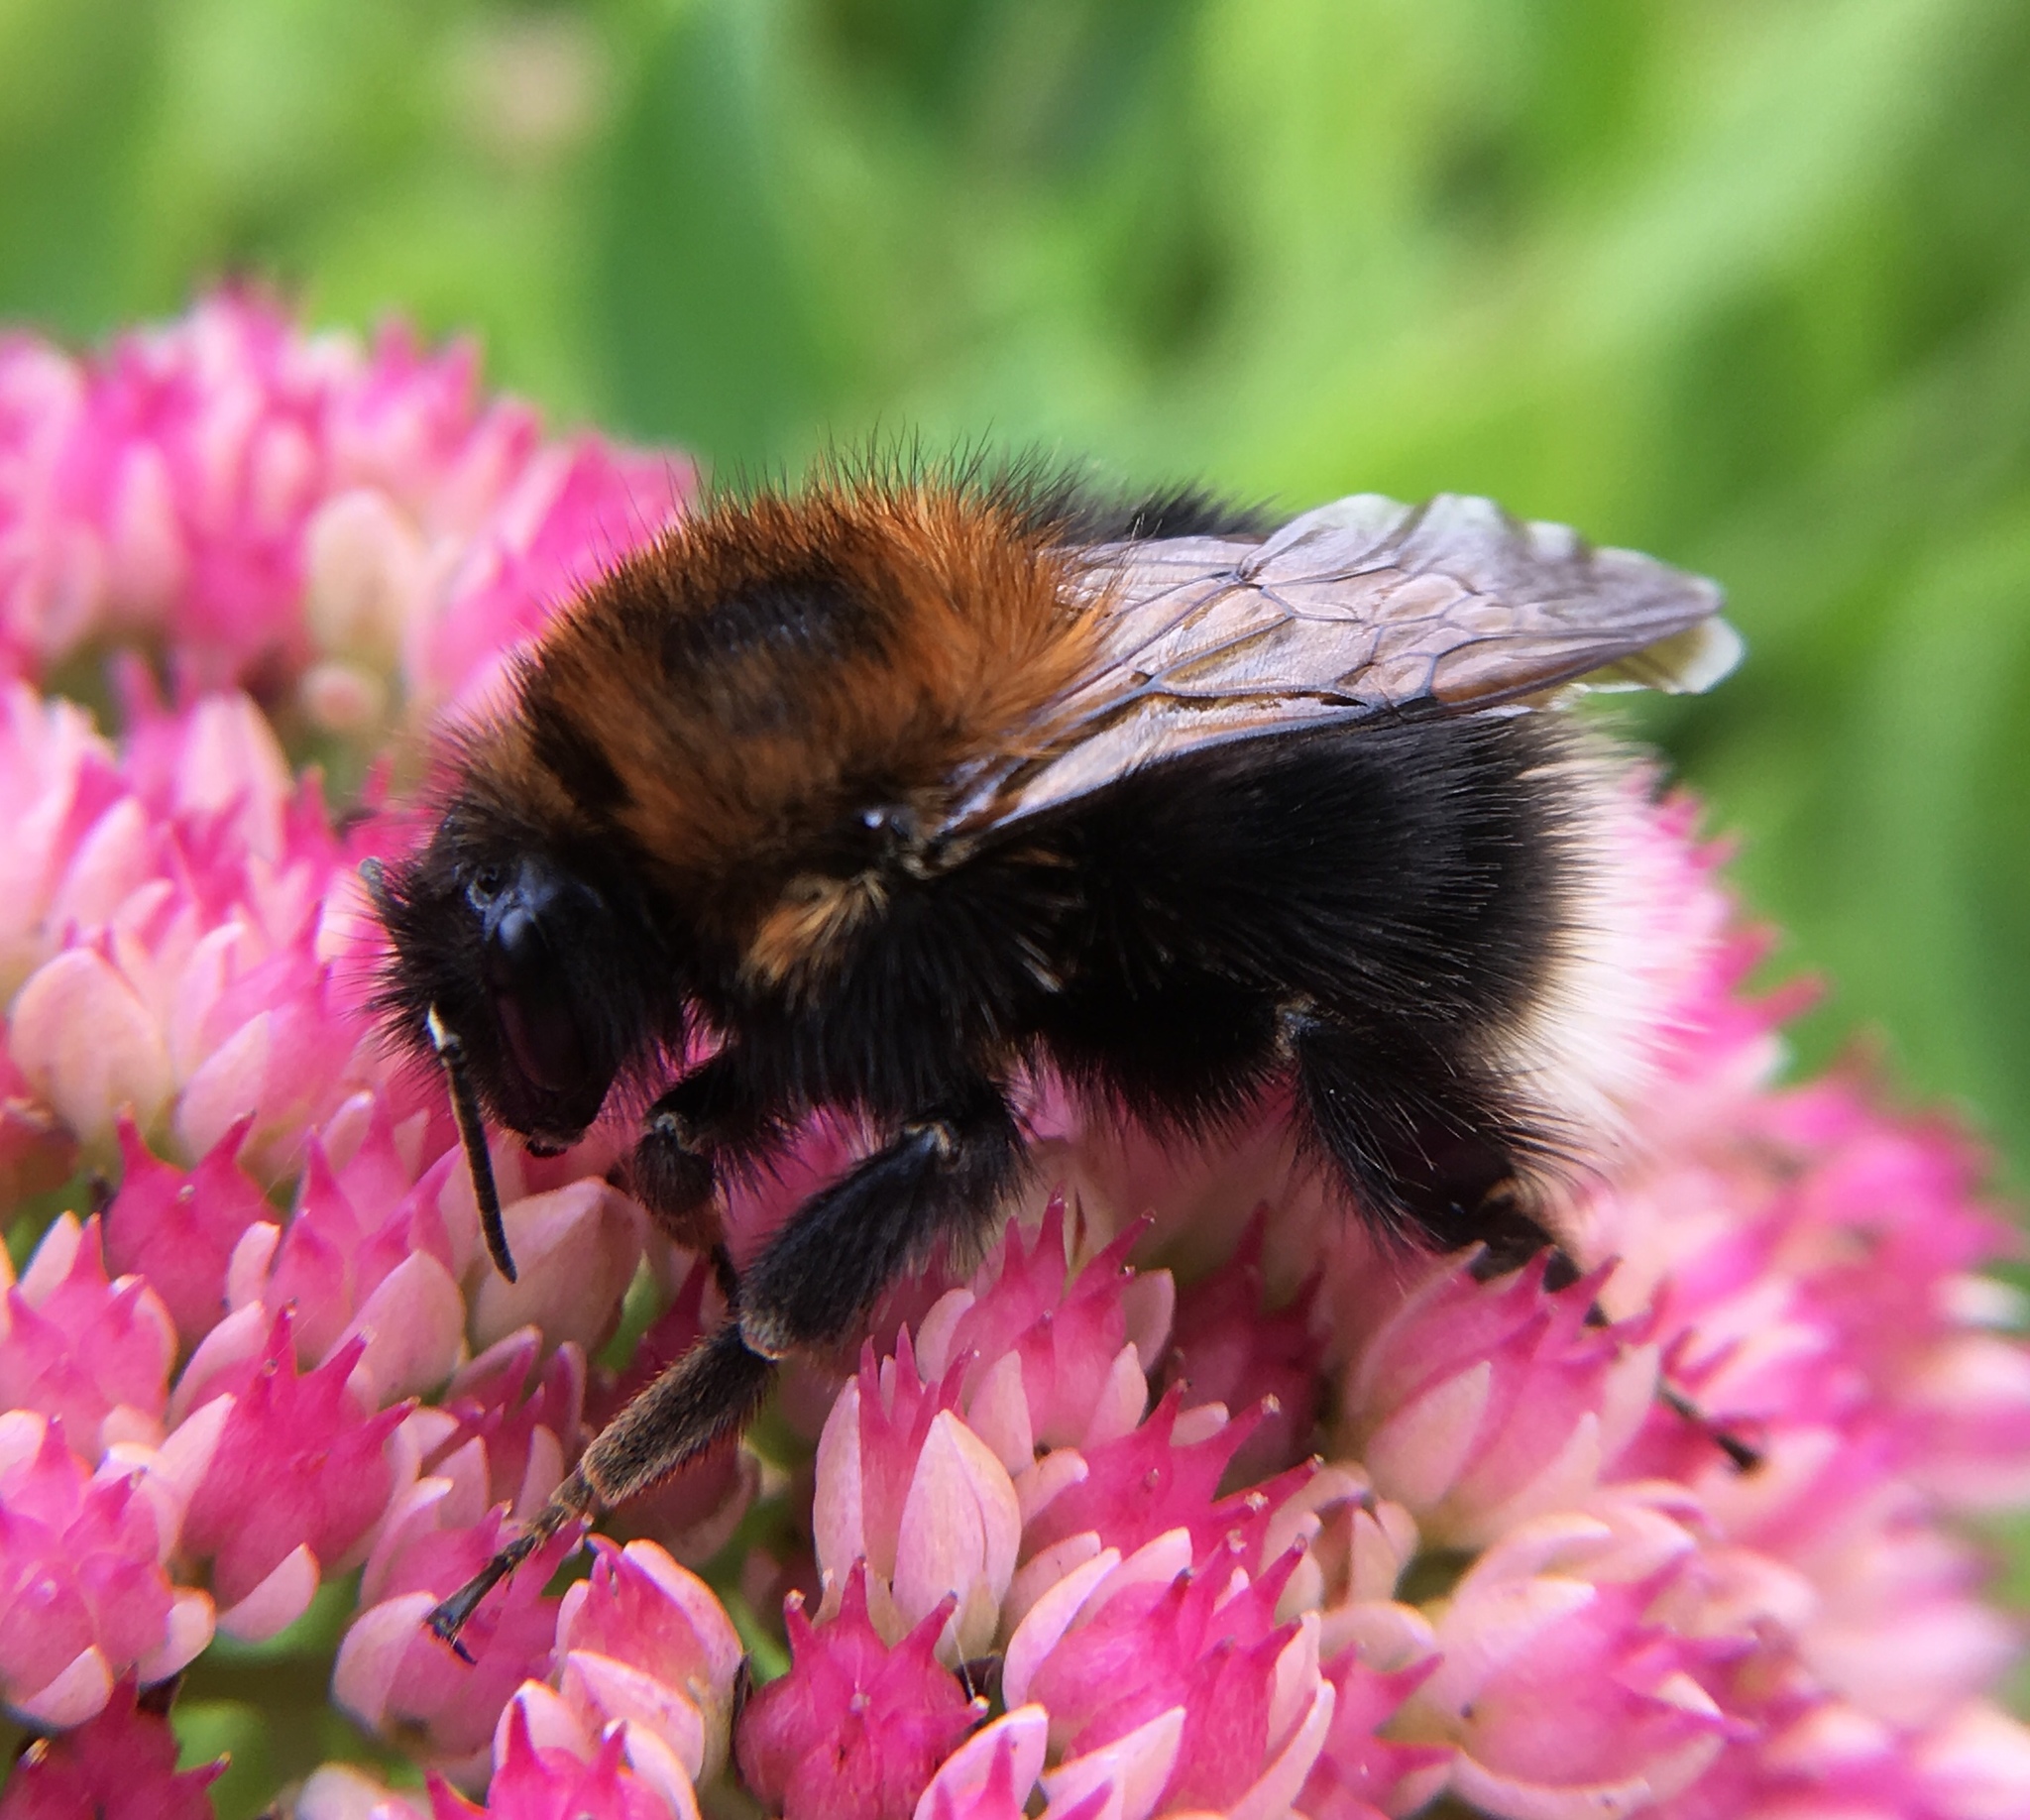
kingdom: Animalia
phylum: Arthropoda
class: Insecta
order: Hymenoptera
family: Apidae
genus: Bombus
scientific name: Bombus hypnorum
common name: New garden bumblebee
